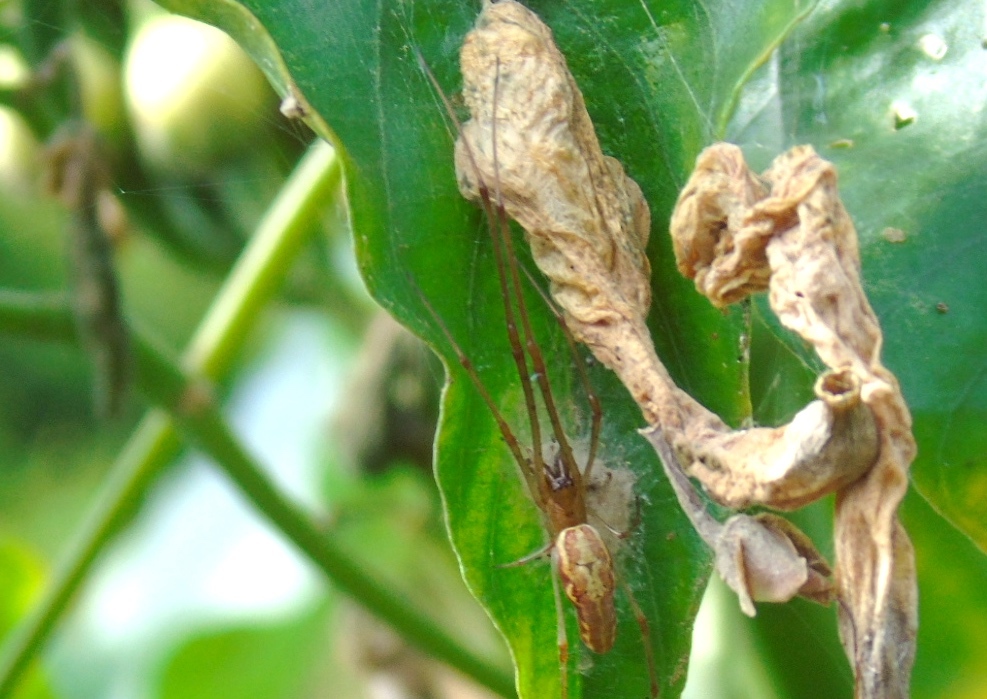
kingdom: Animalia
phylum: Arthropoda
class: Arachnida
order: Araneae
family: Tetragnathidae
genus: Tetragnatha
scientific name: Tetragnatha
